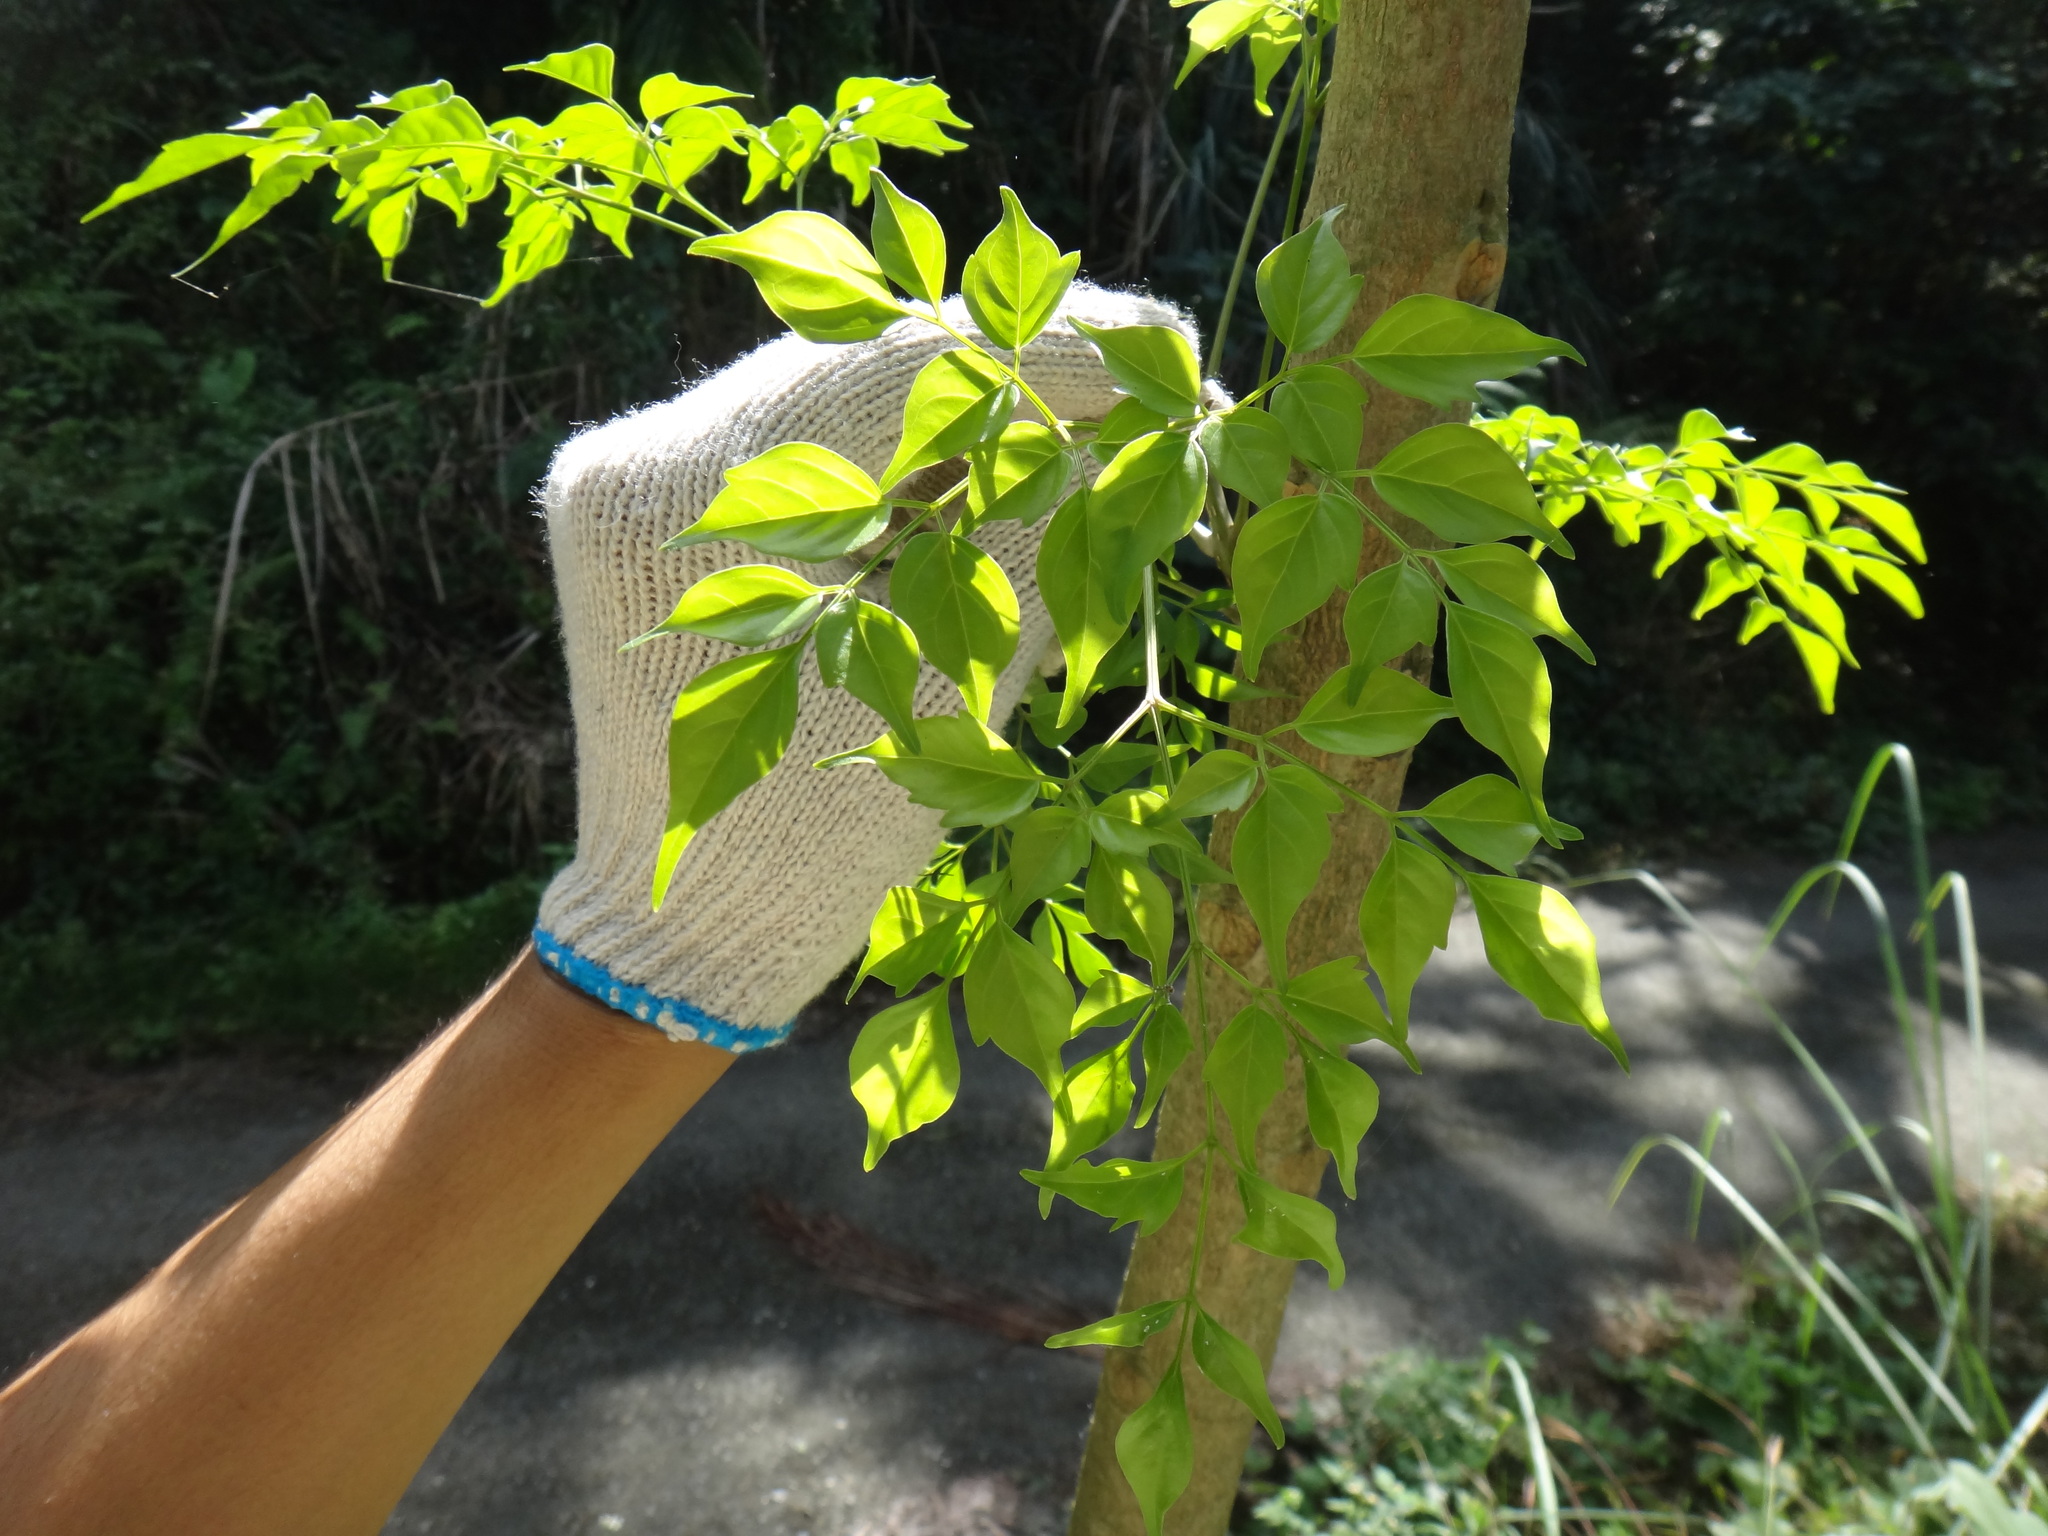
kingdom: Plantae
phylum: Tracheophyta
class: Magnoliopsida
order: Lamiales
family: Bignoniaceae
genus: Radermachera
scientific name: Radermachera sinica
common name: China doll plant
